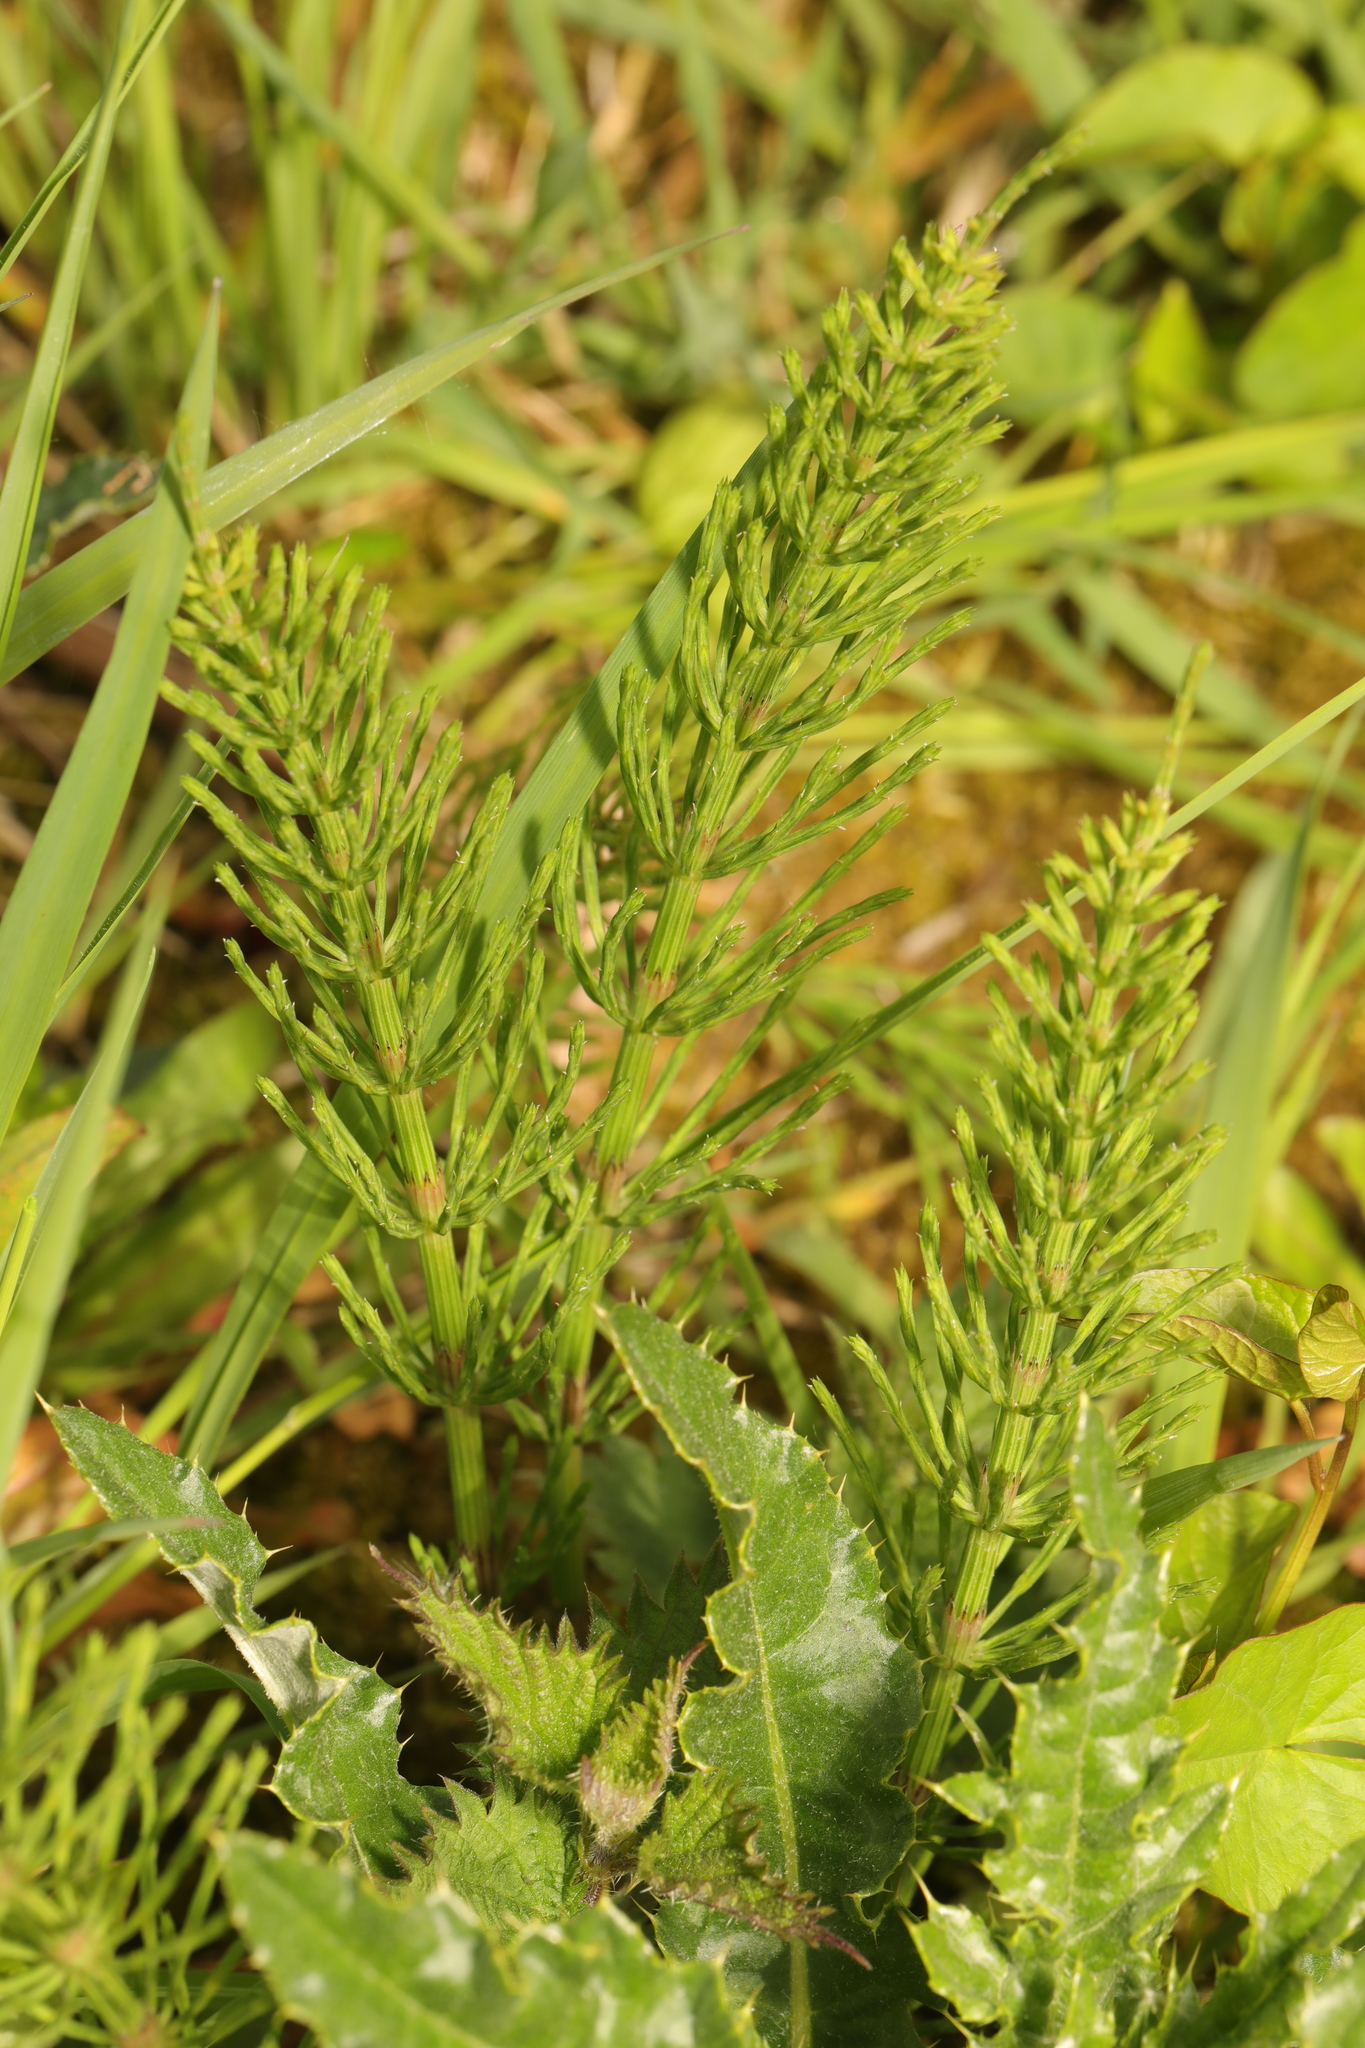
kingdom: Plantae
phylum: Tracheophyta
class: Polypodiopsida
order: Equisetales
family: Equisetaceae
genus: Equisetum
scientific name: Equisetum arvense
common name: Field horsetail
